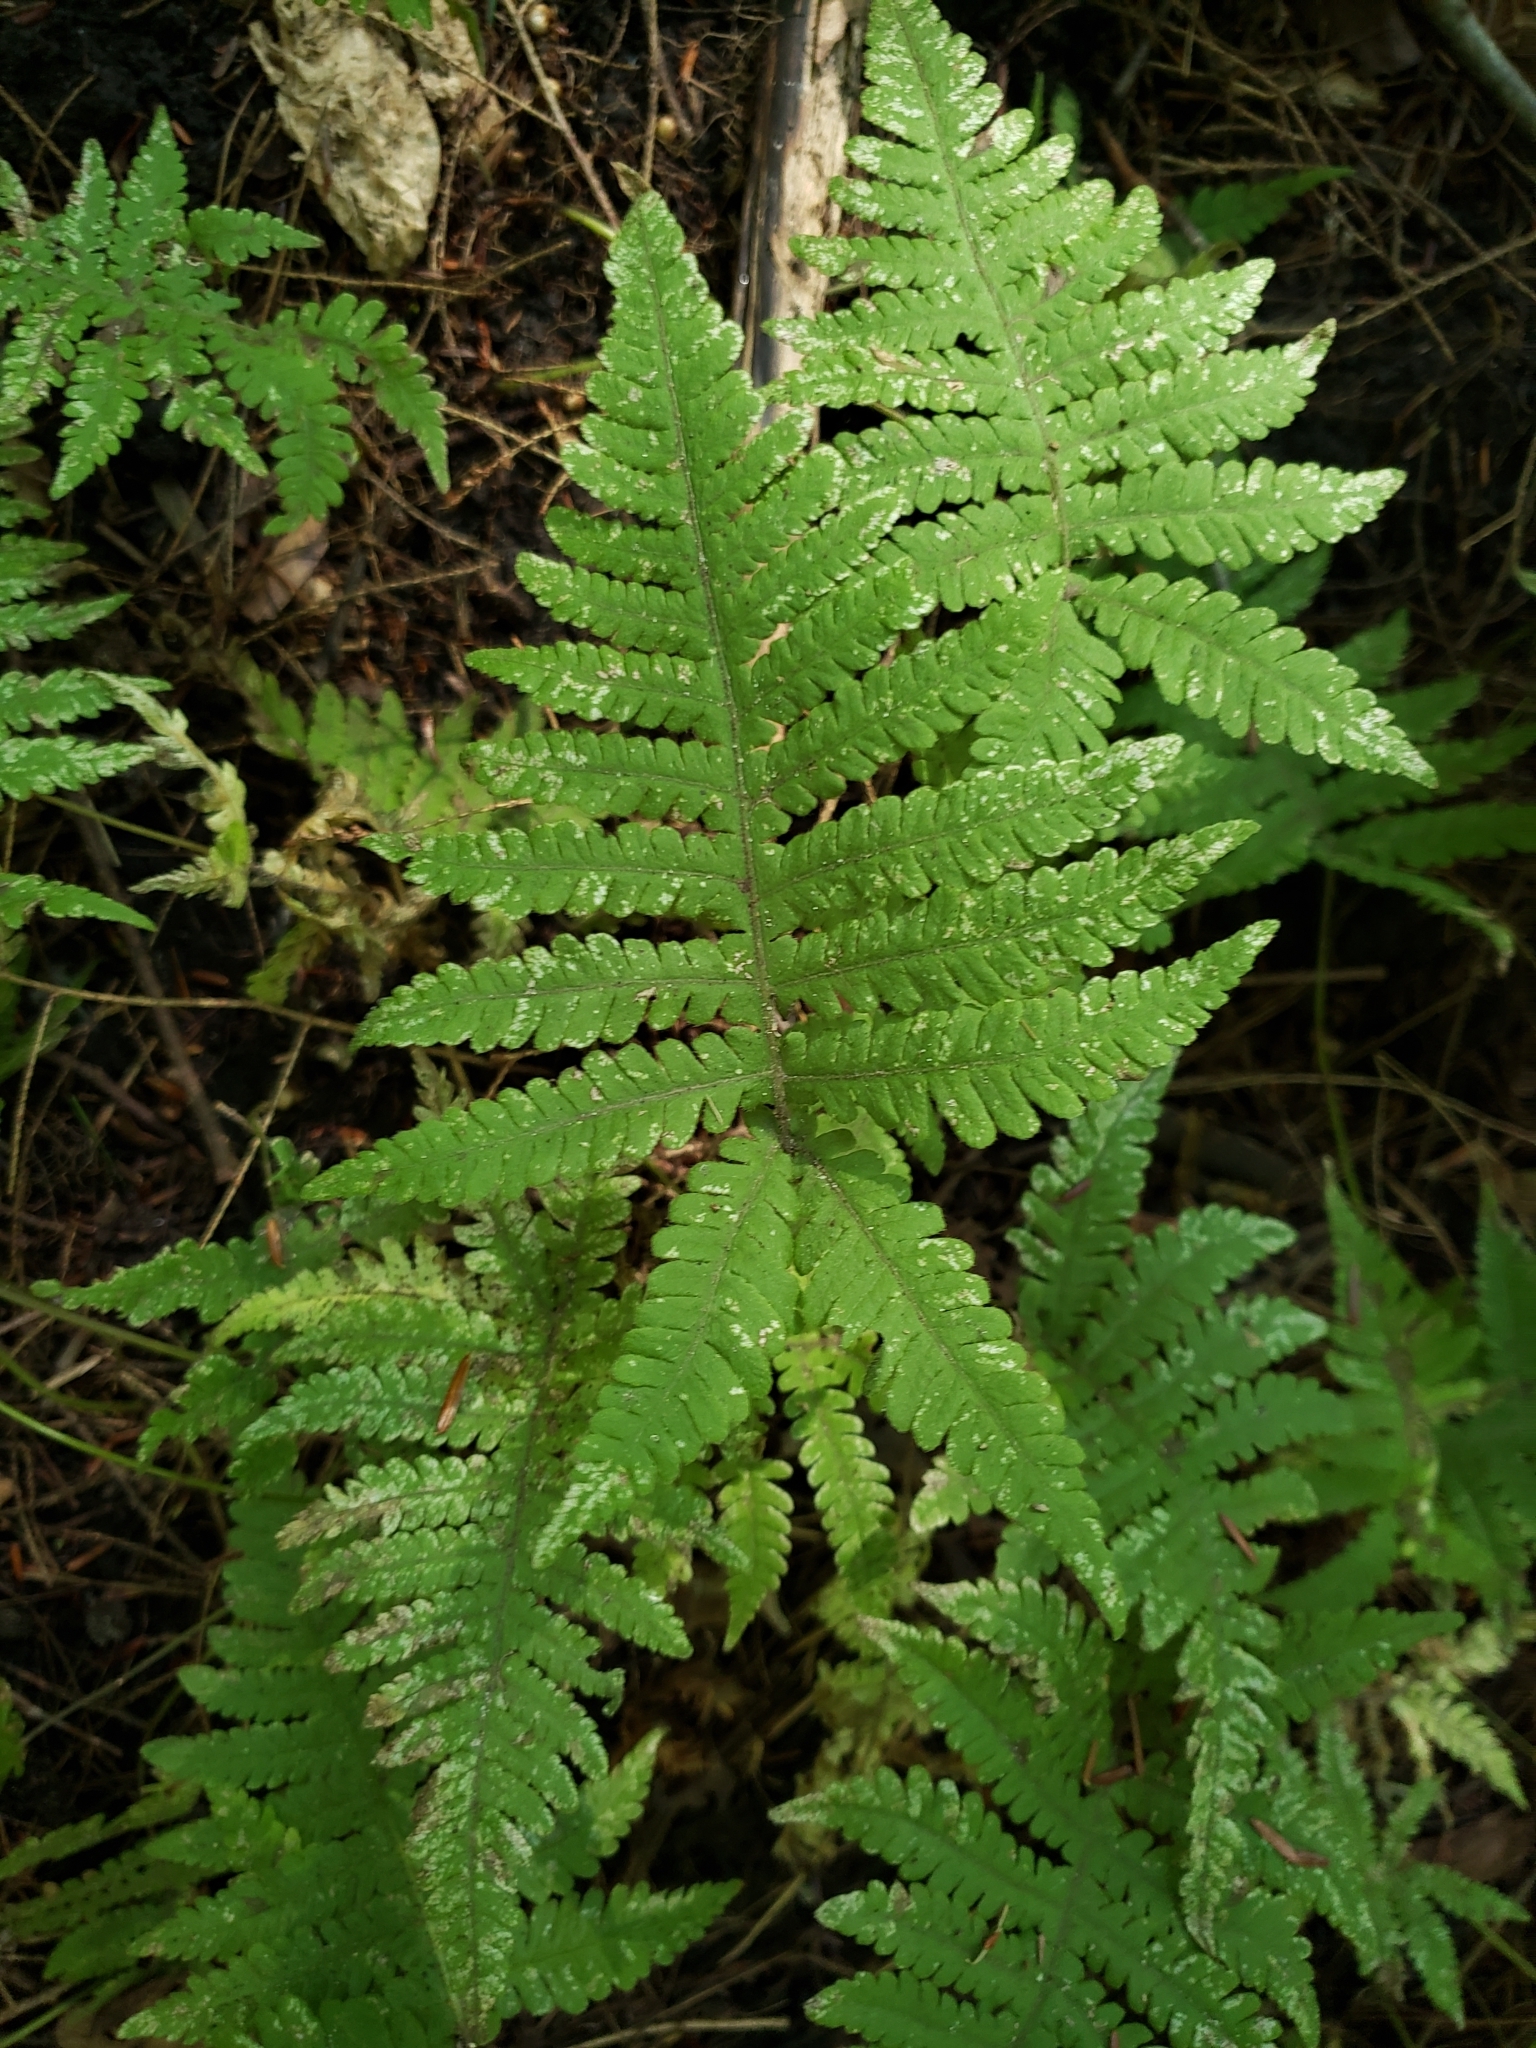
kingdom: Plantae
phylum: Tracheophyta
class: Polypodiopsida
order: Polypodiales
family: Thelypteridaceae
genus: Phegopteris
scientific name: Phegopteris connectilis
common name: Beech fern
